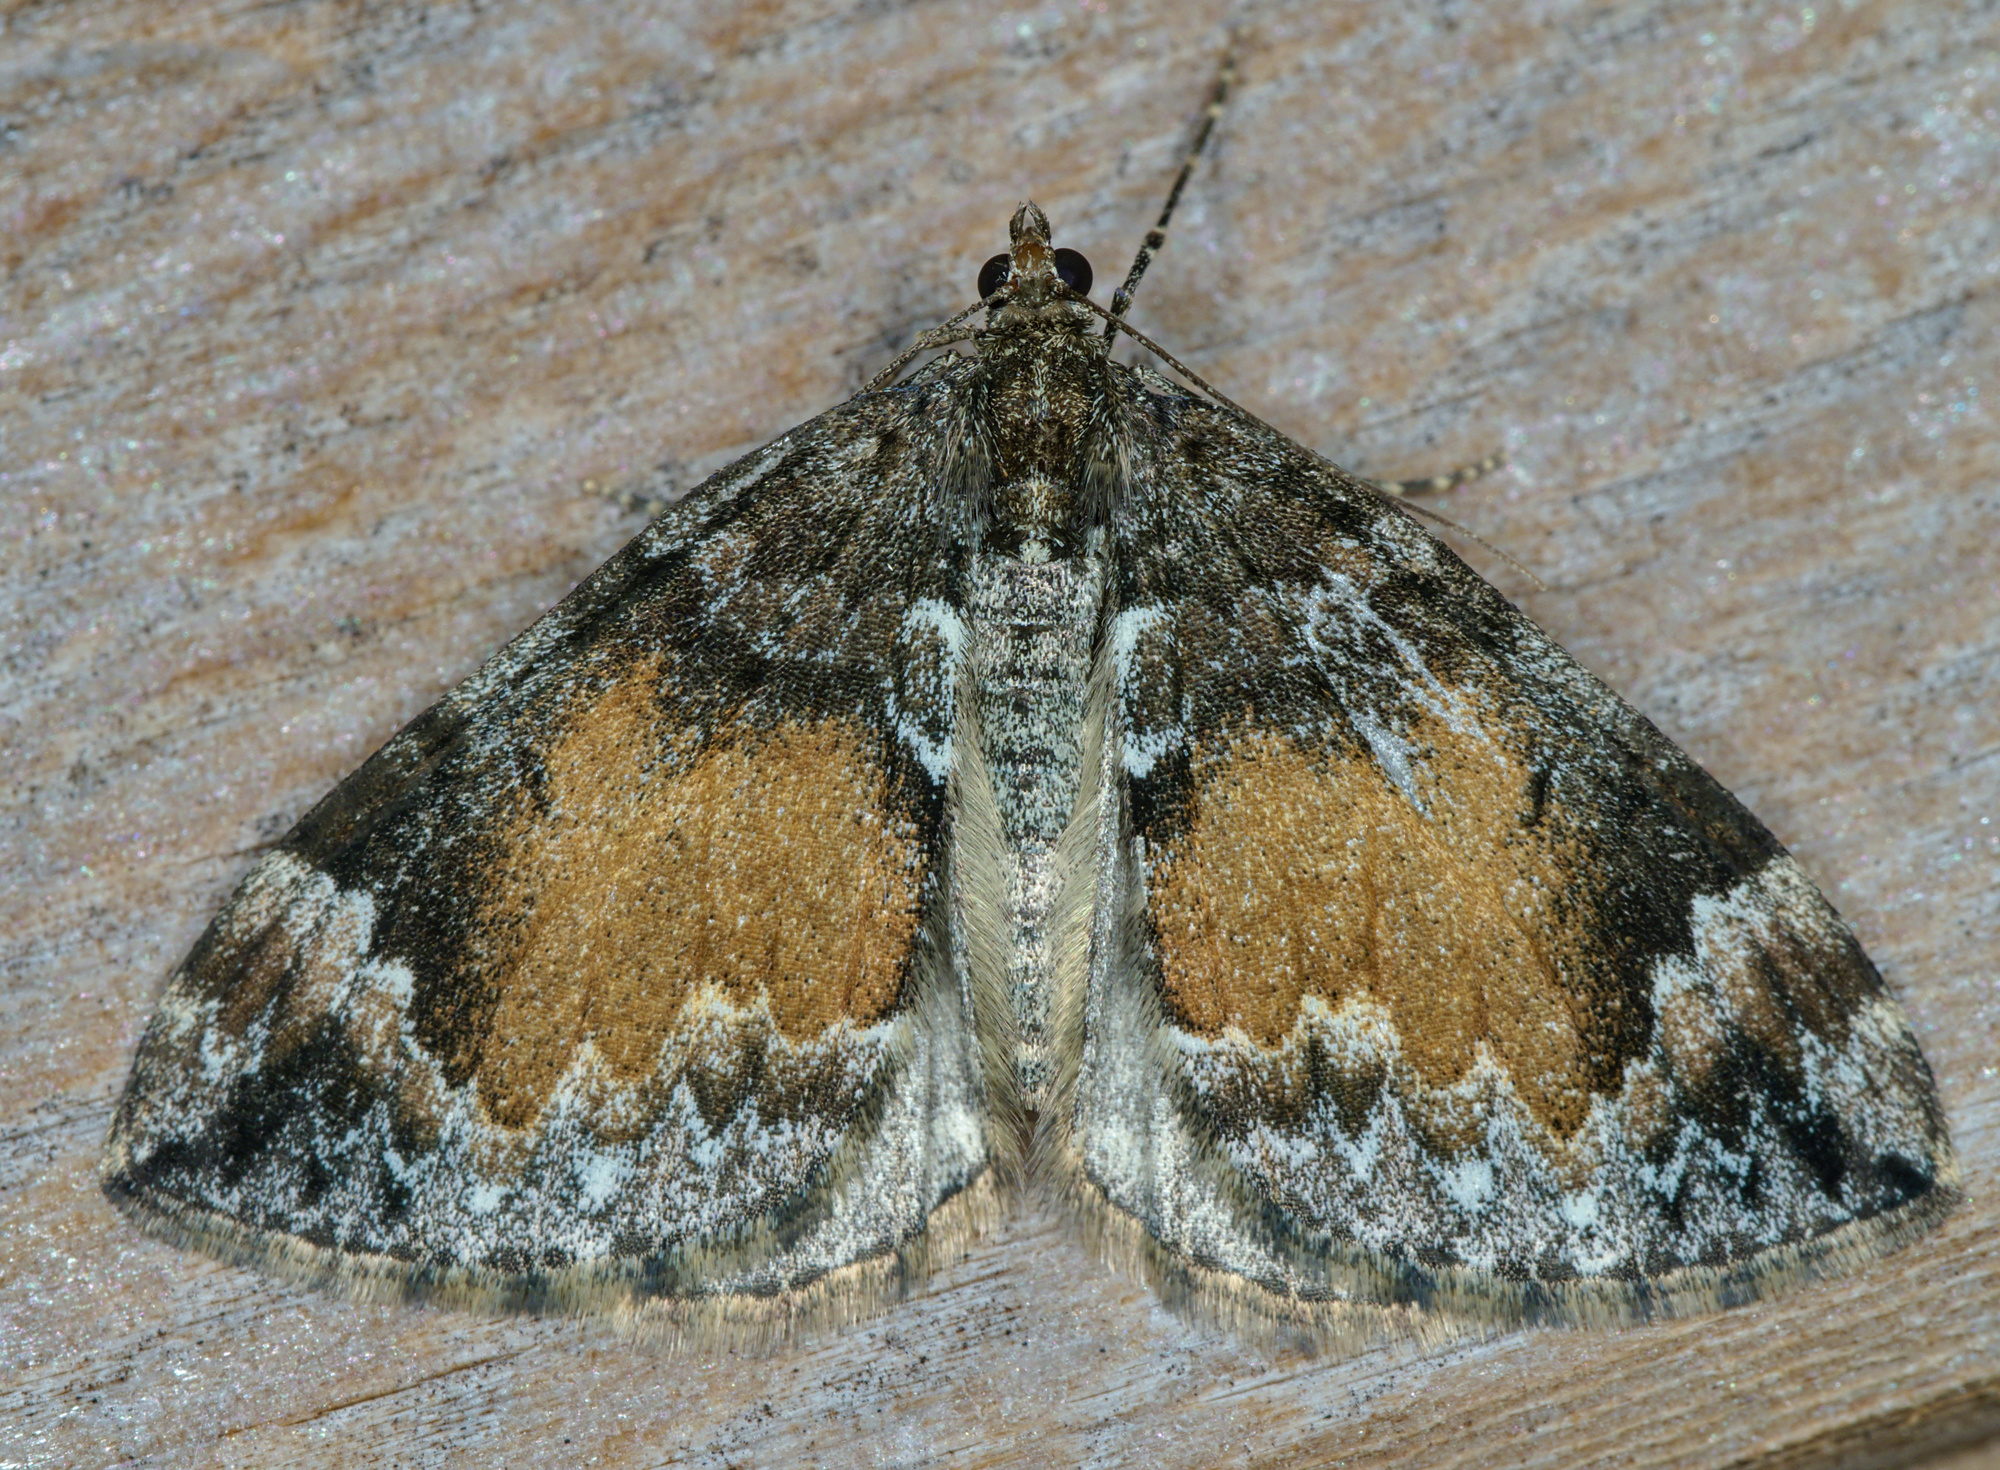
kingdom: Animalia
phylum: Arthropoda
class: Insecta
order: Lepidoptera
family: Geometridae
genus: Dysstroma
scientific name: Dysstroma truncata
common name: Common marbled carpet
